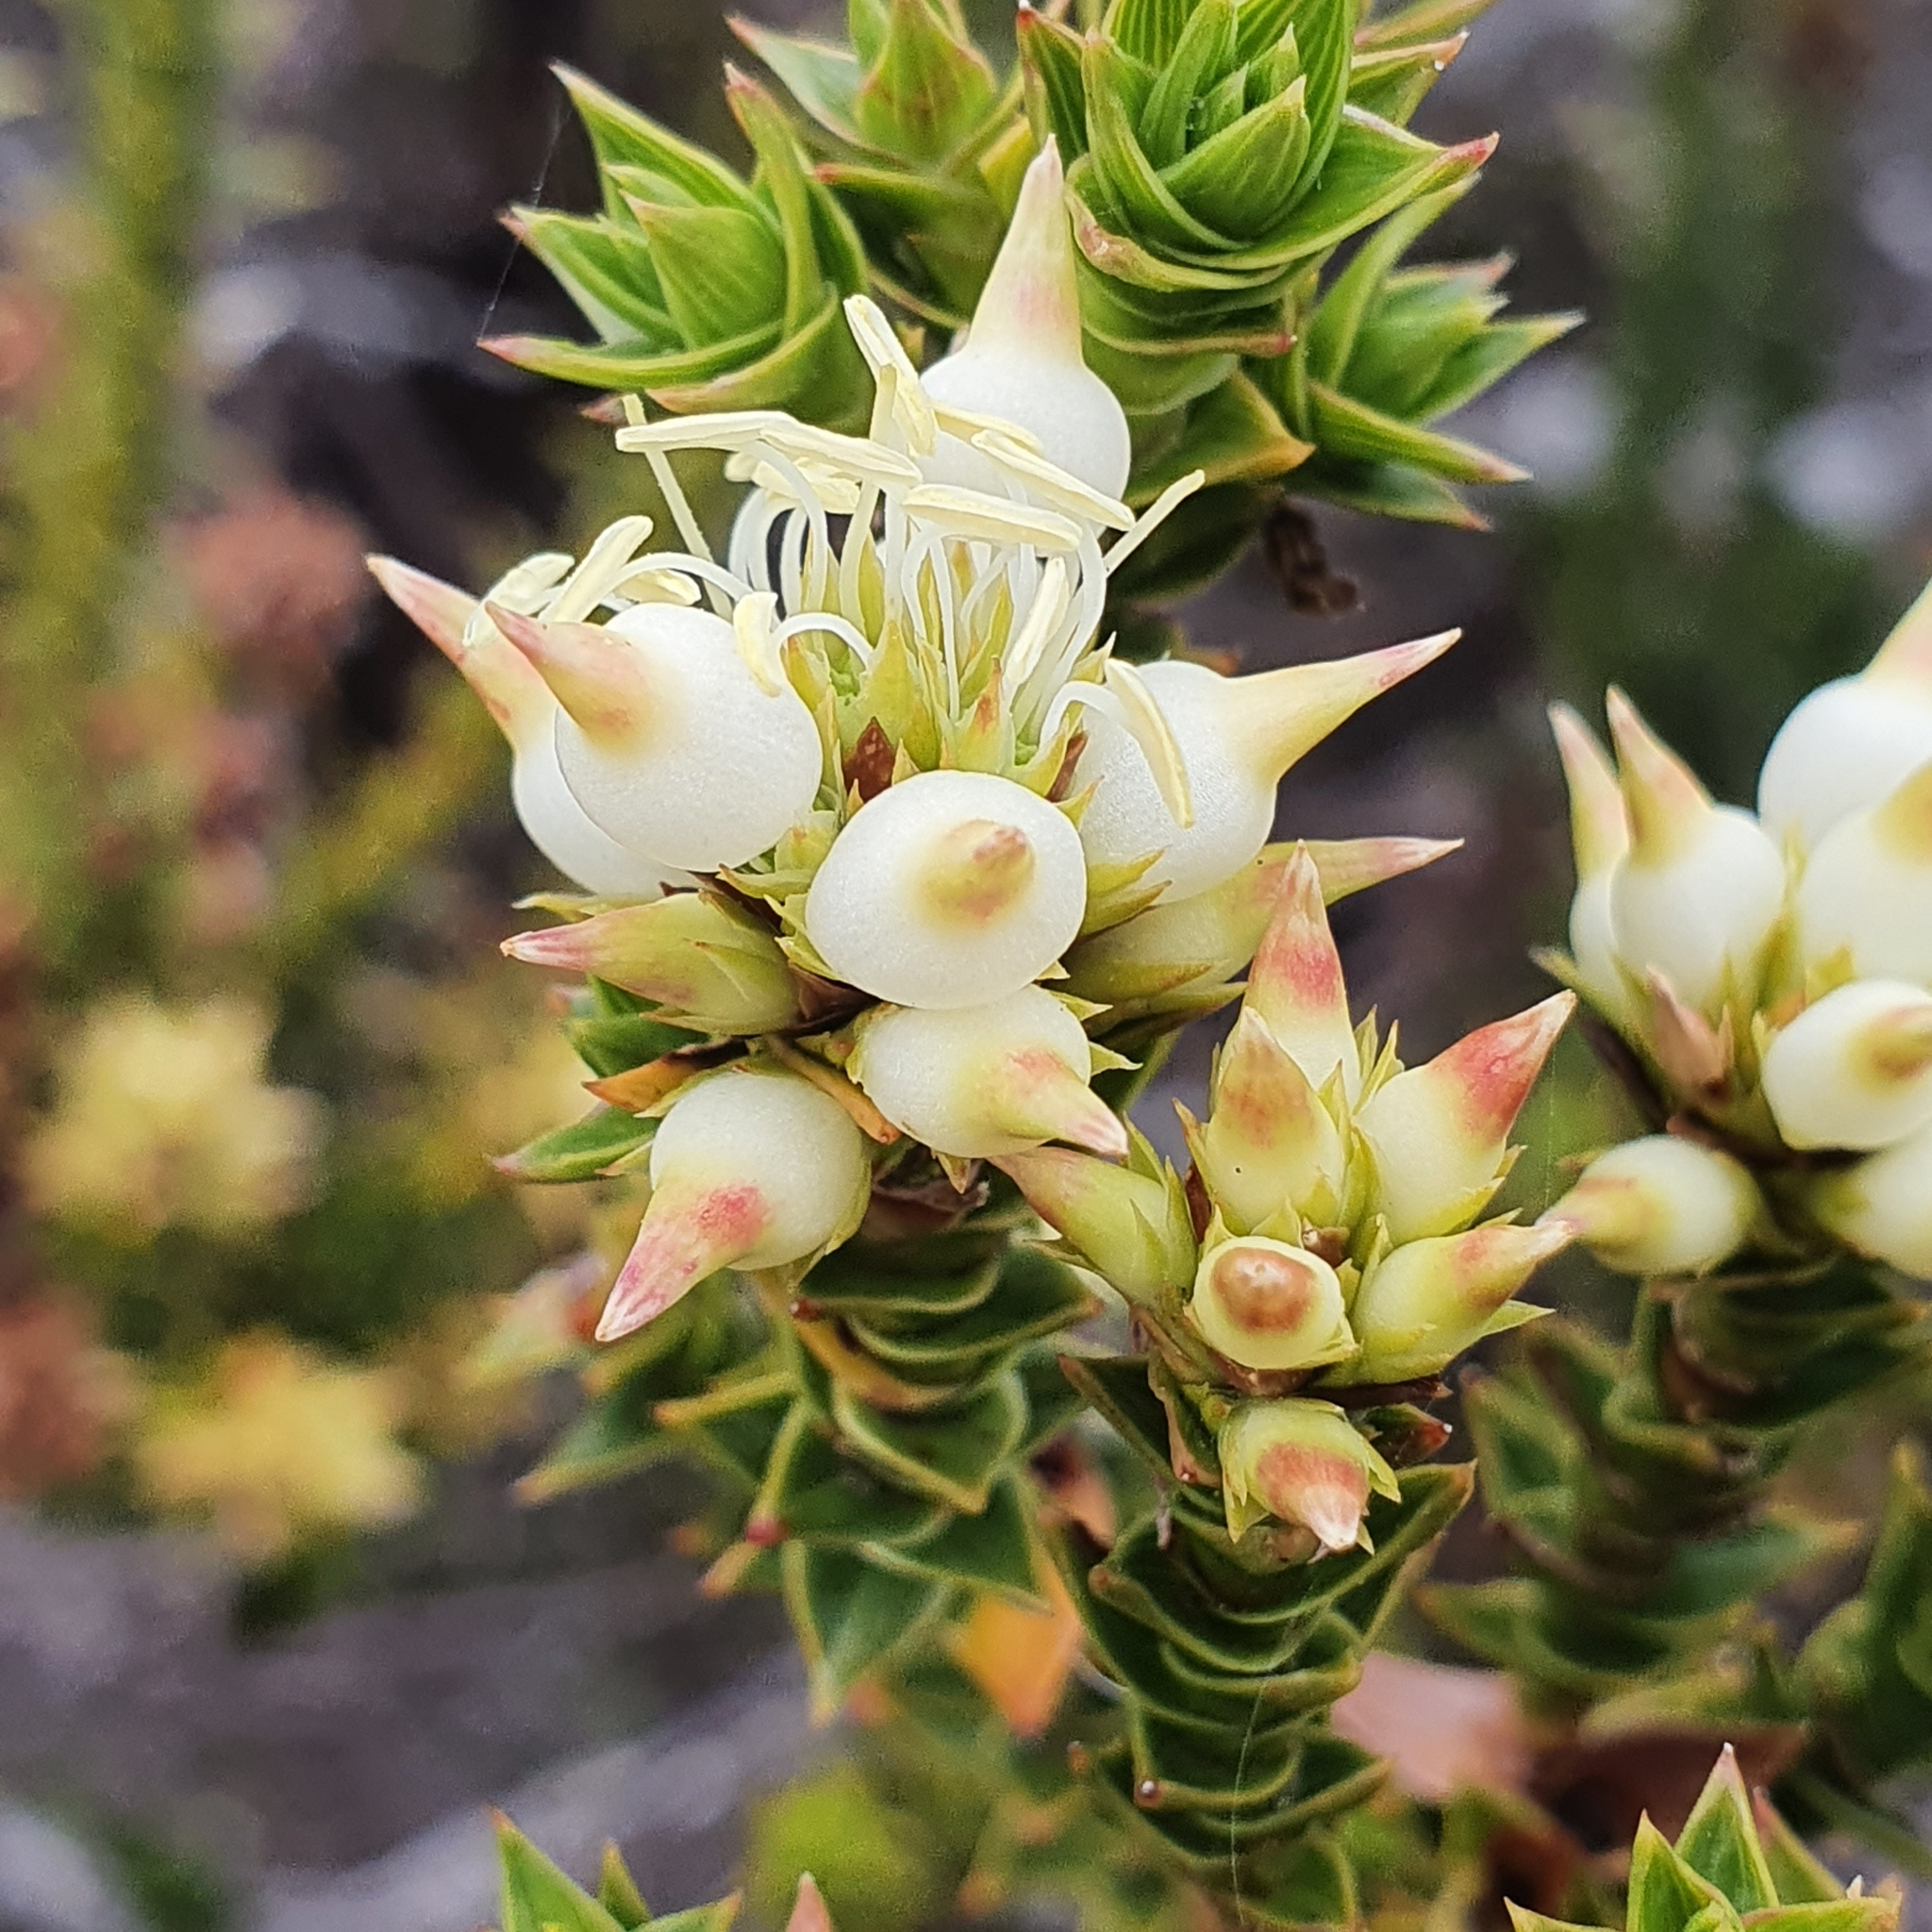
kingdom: Plantae
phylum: Tracheophyta
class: Magnoliopsida
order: Ericales
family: Ericaceae
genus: Dracophyllum
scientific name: Dracophyllum sprengelioides
